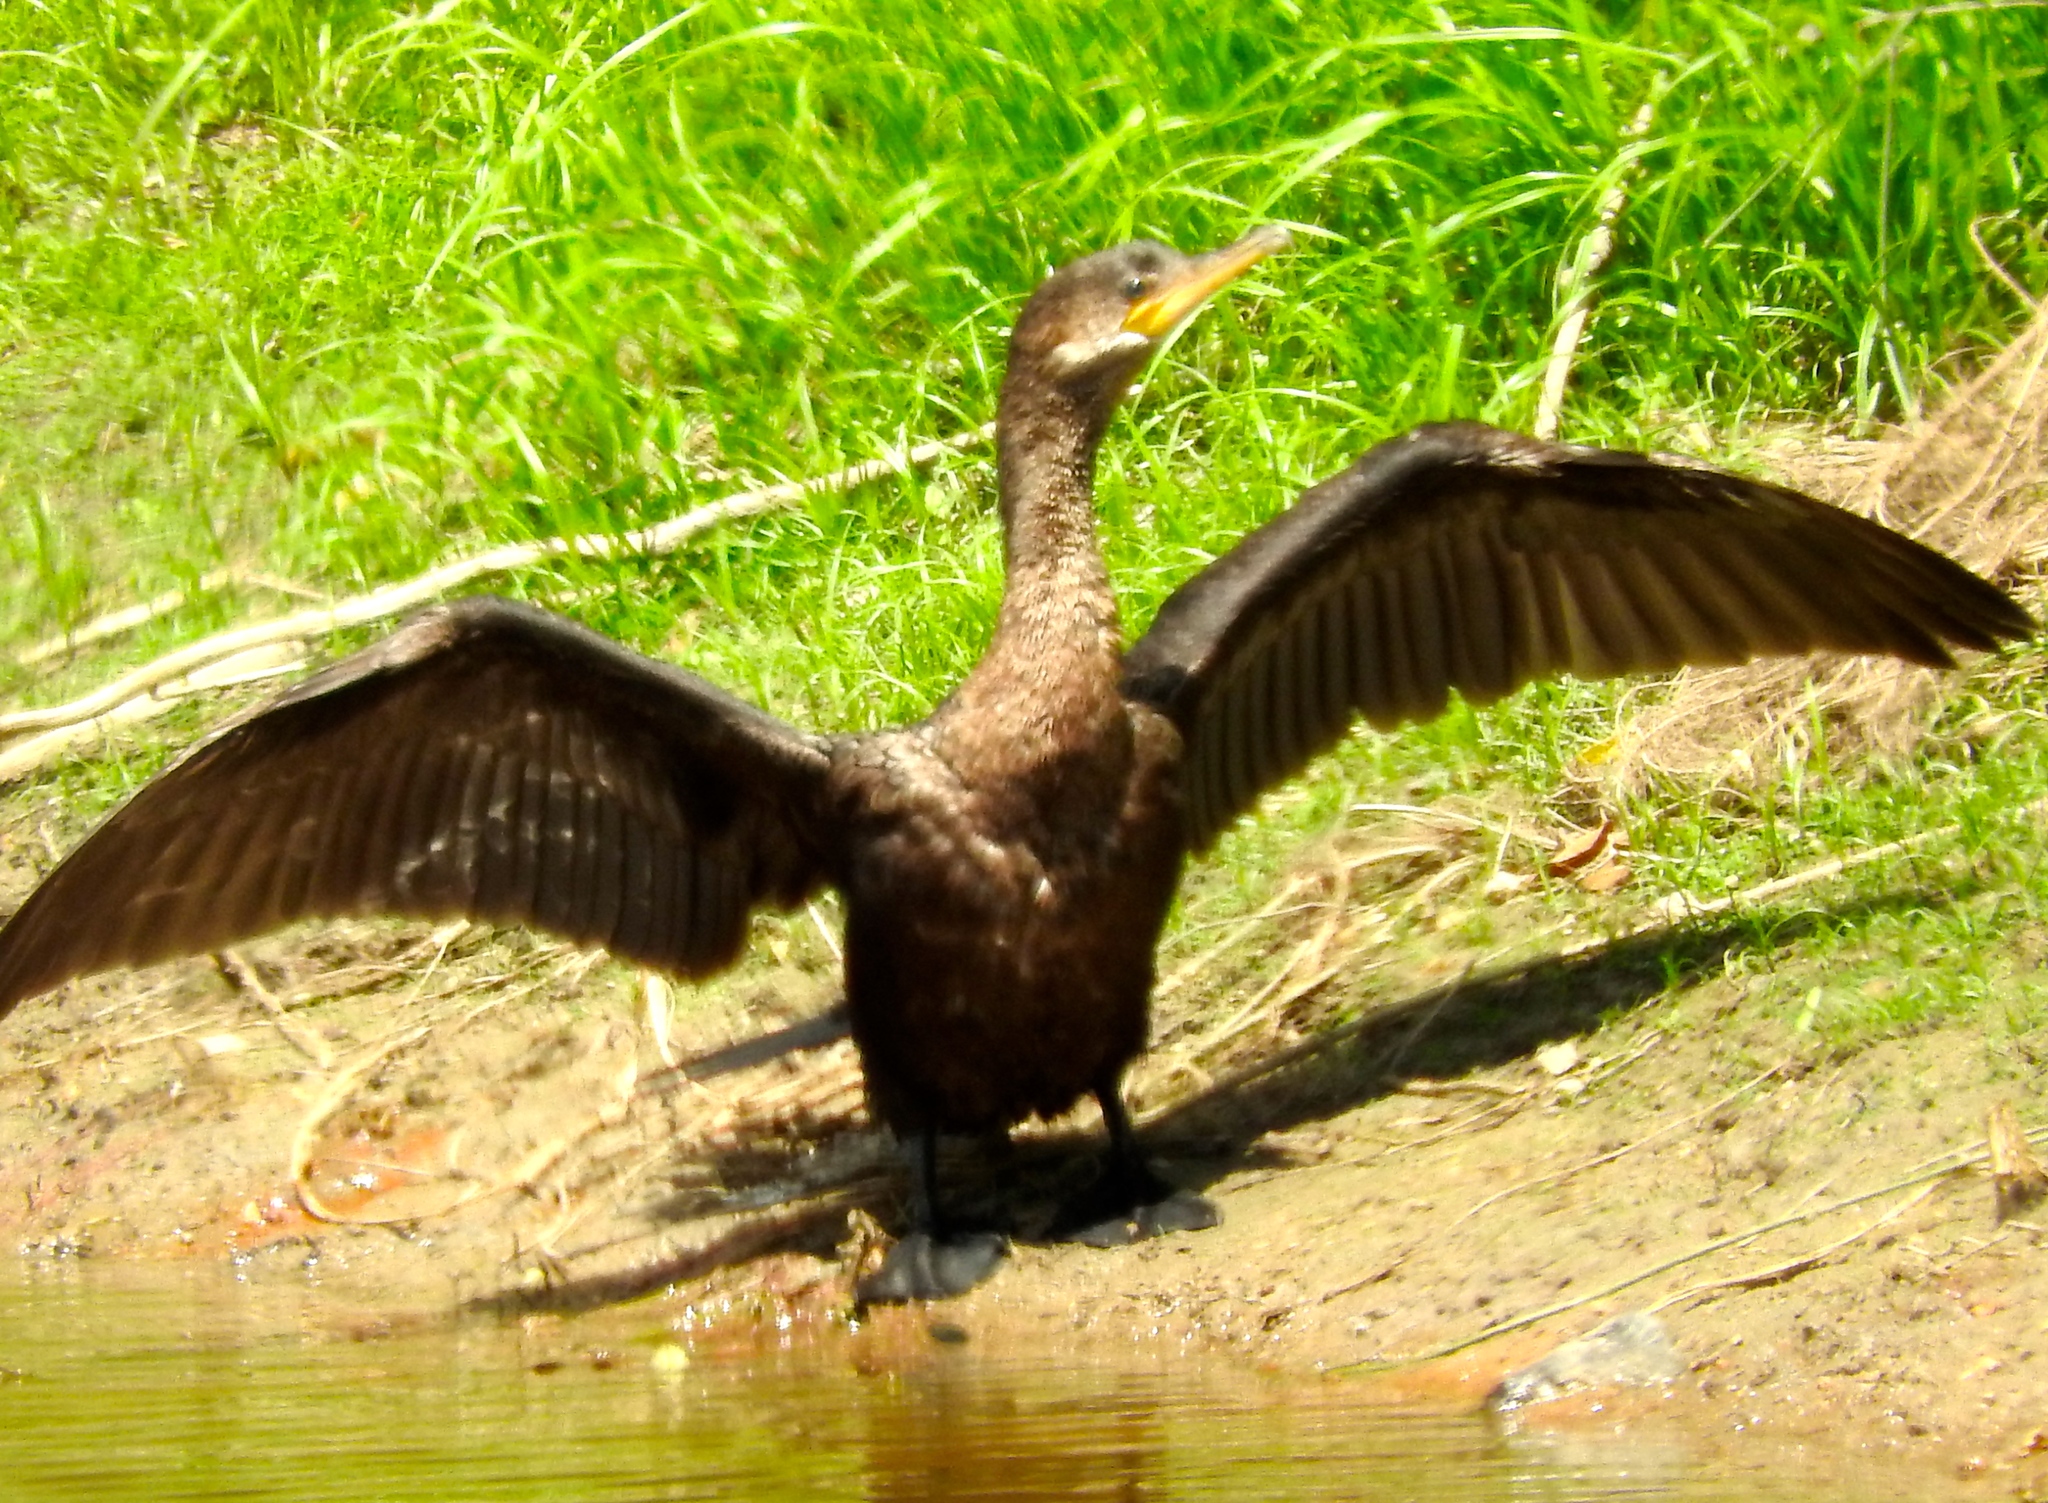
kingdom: Animalia
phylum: Chordata
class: Aves
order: Suliformes
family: Phalacrocoracidae
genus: Phalacrocorax
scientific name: Phalacrocorax brasilianus
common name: Neotropic cormorant
